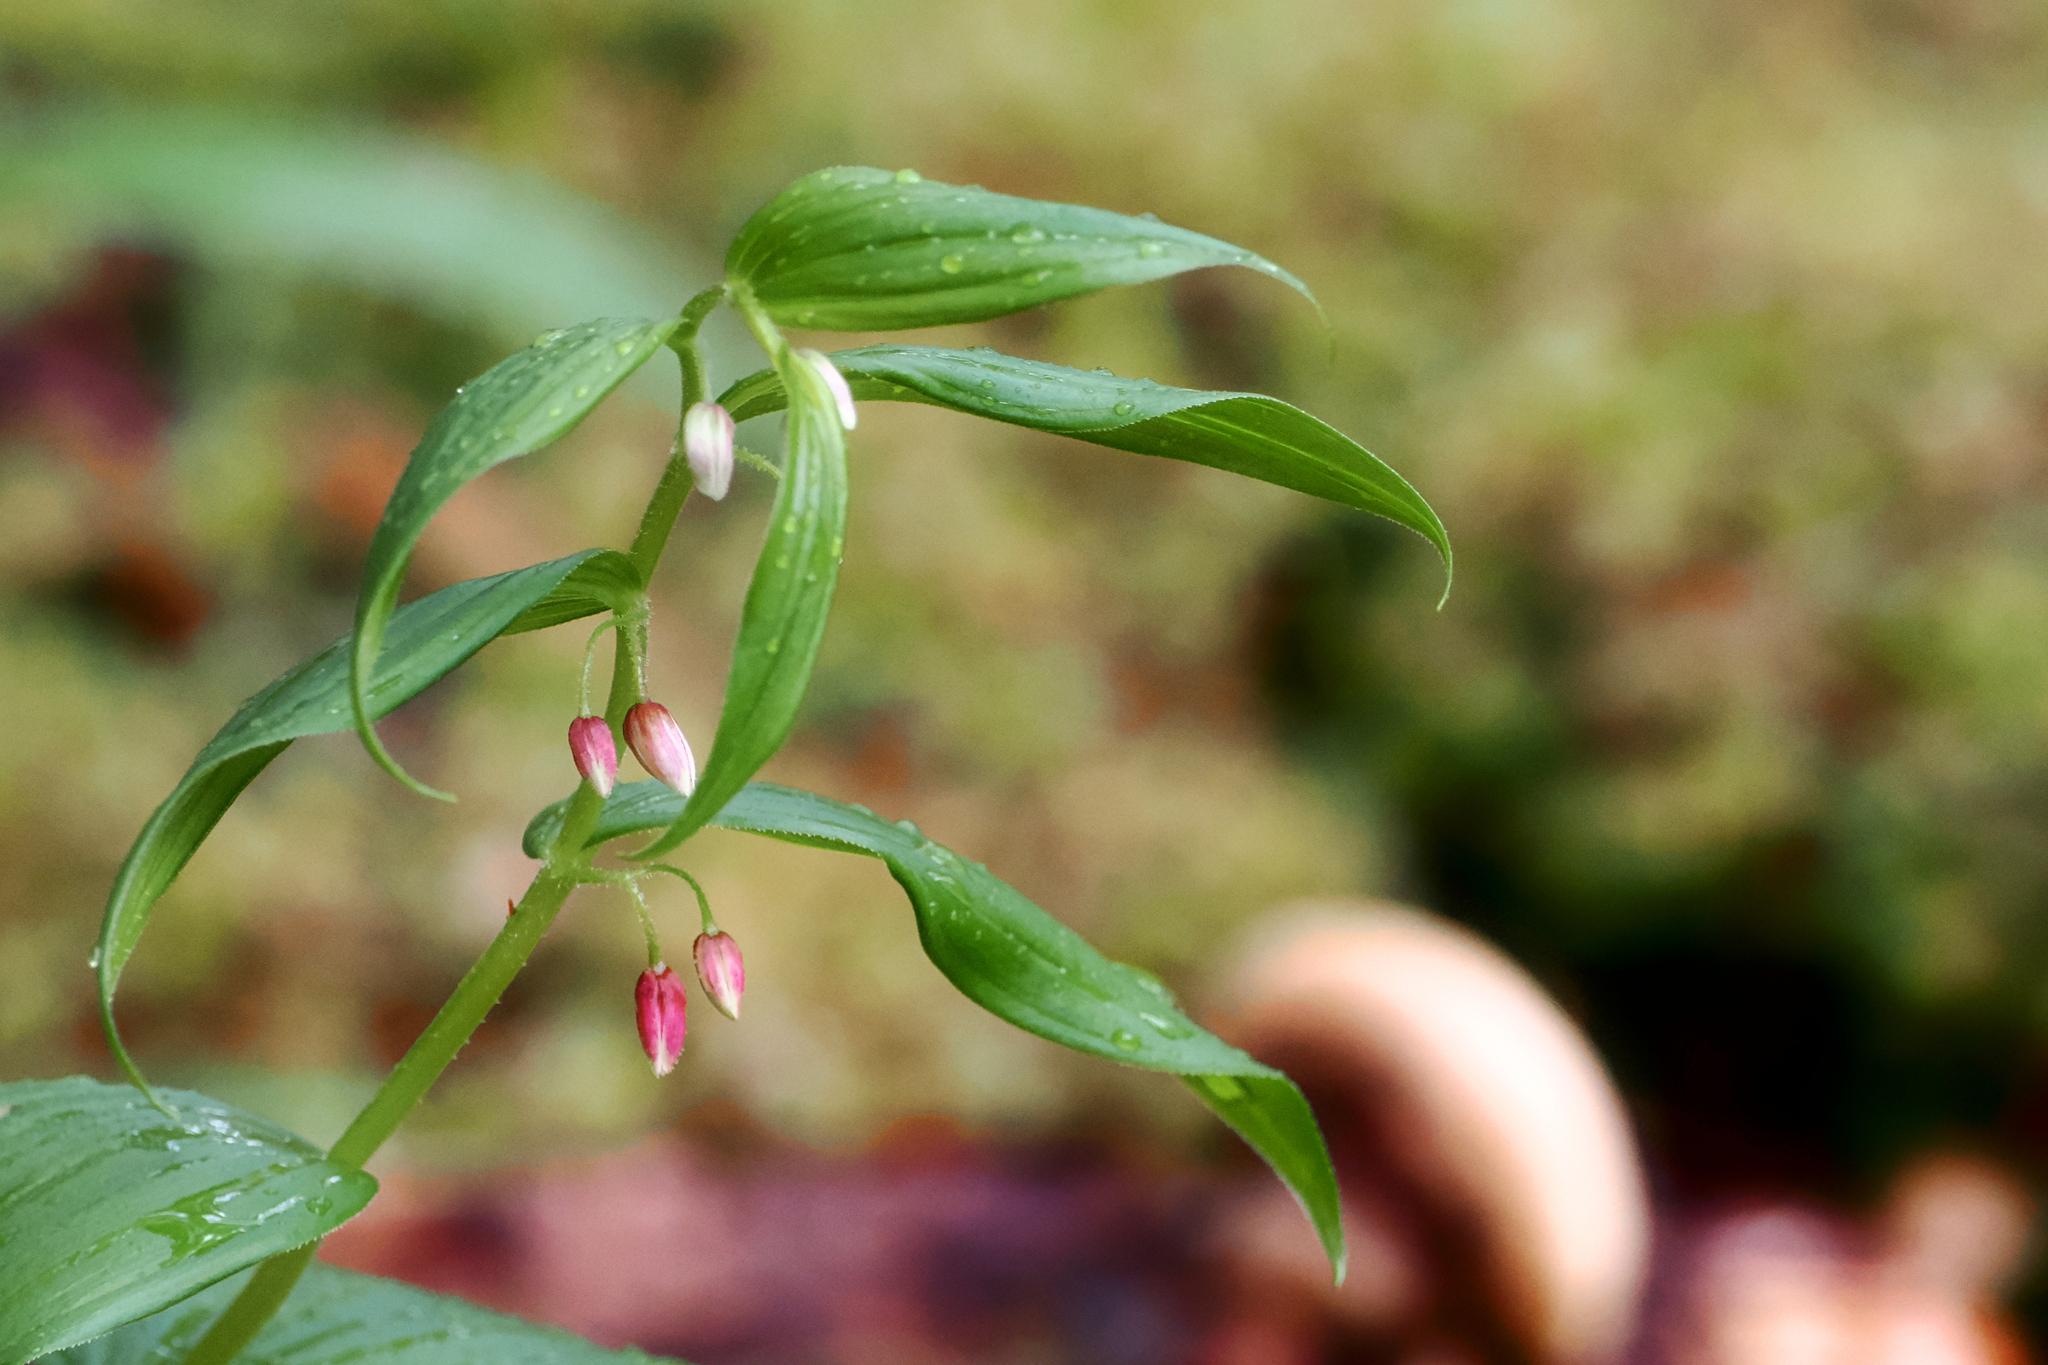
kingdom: Plantae
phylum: Tracheophyta
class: Liliopsida
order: Liliales
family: Liliaceae
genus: Streptopus
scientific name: Streptopus lanceolatus
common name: Rose mandarin
